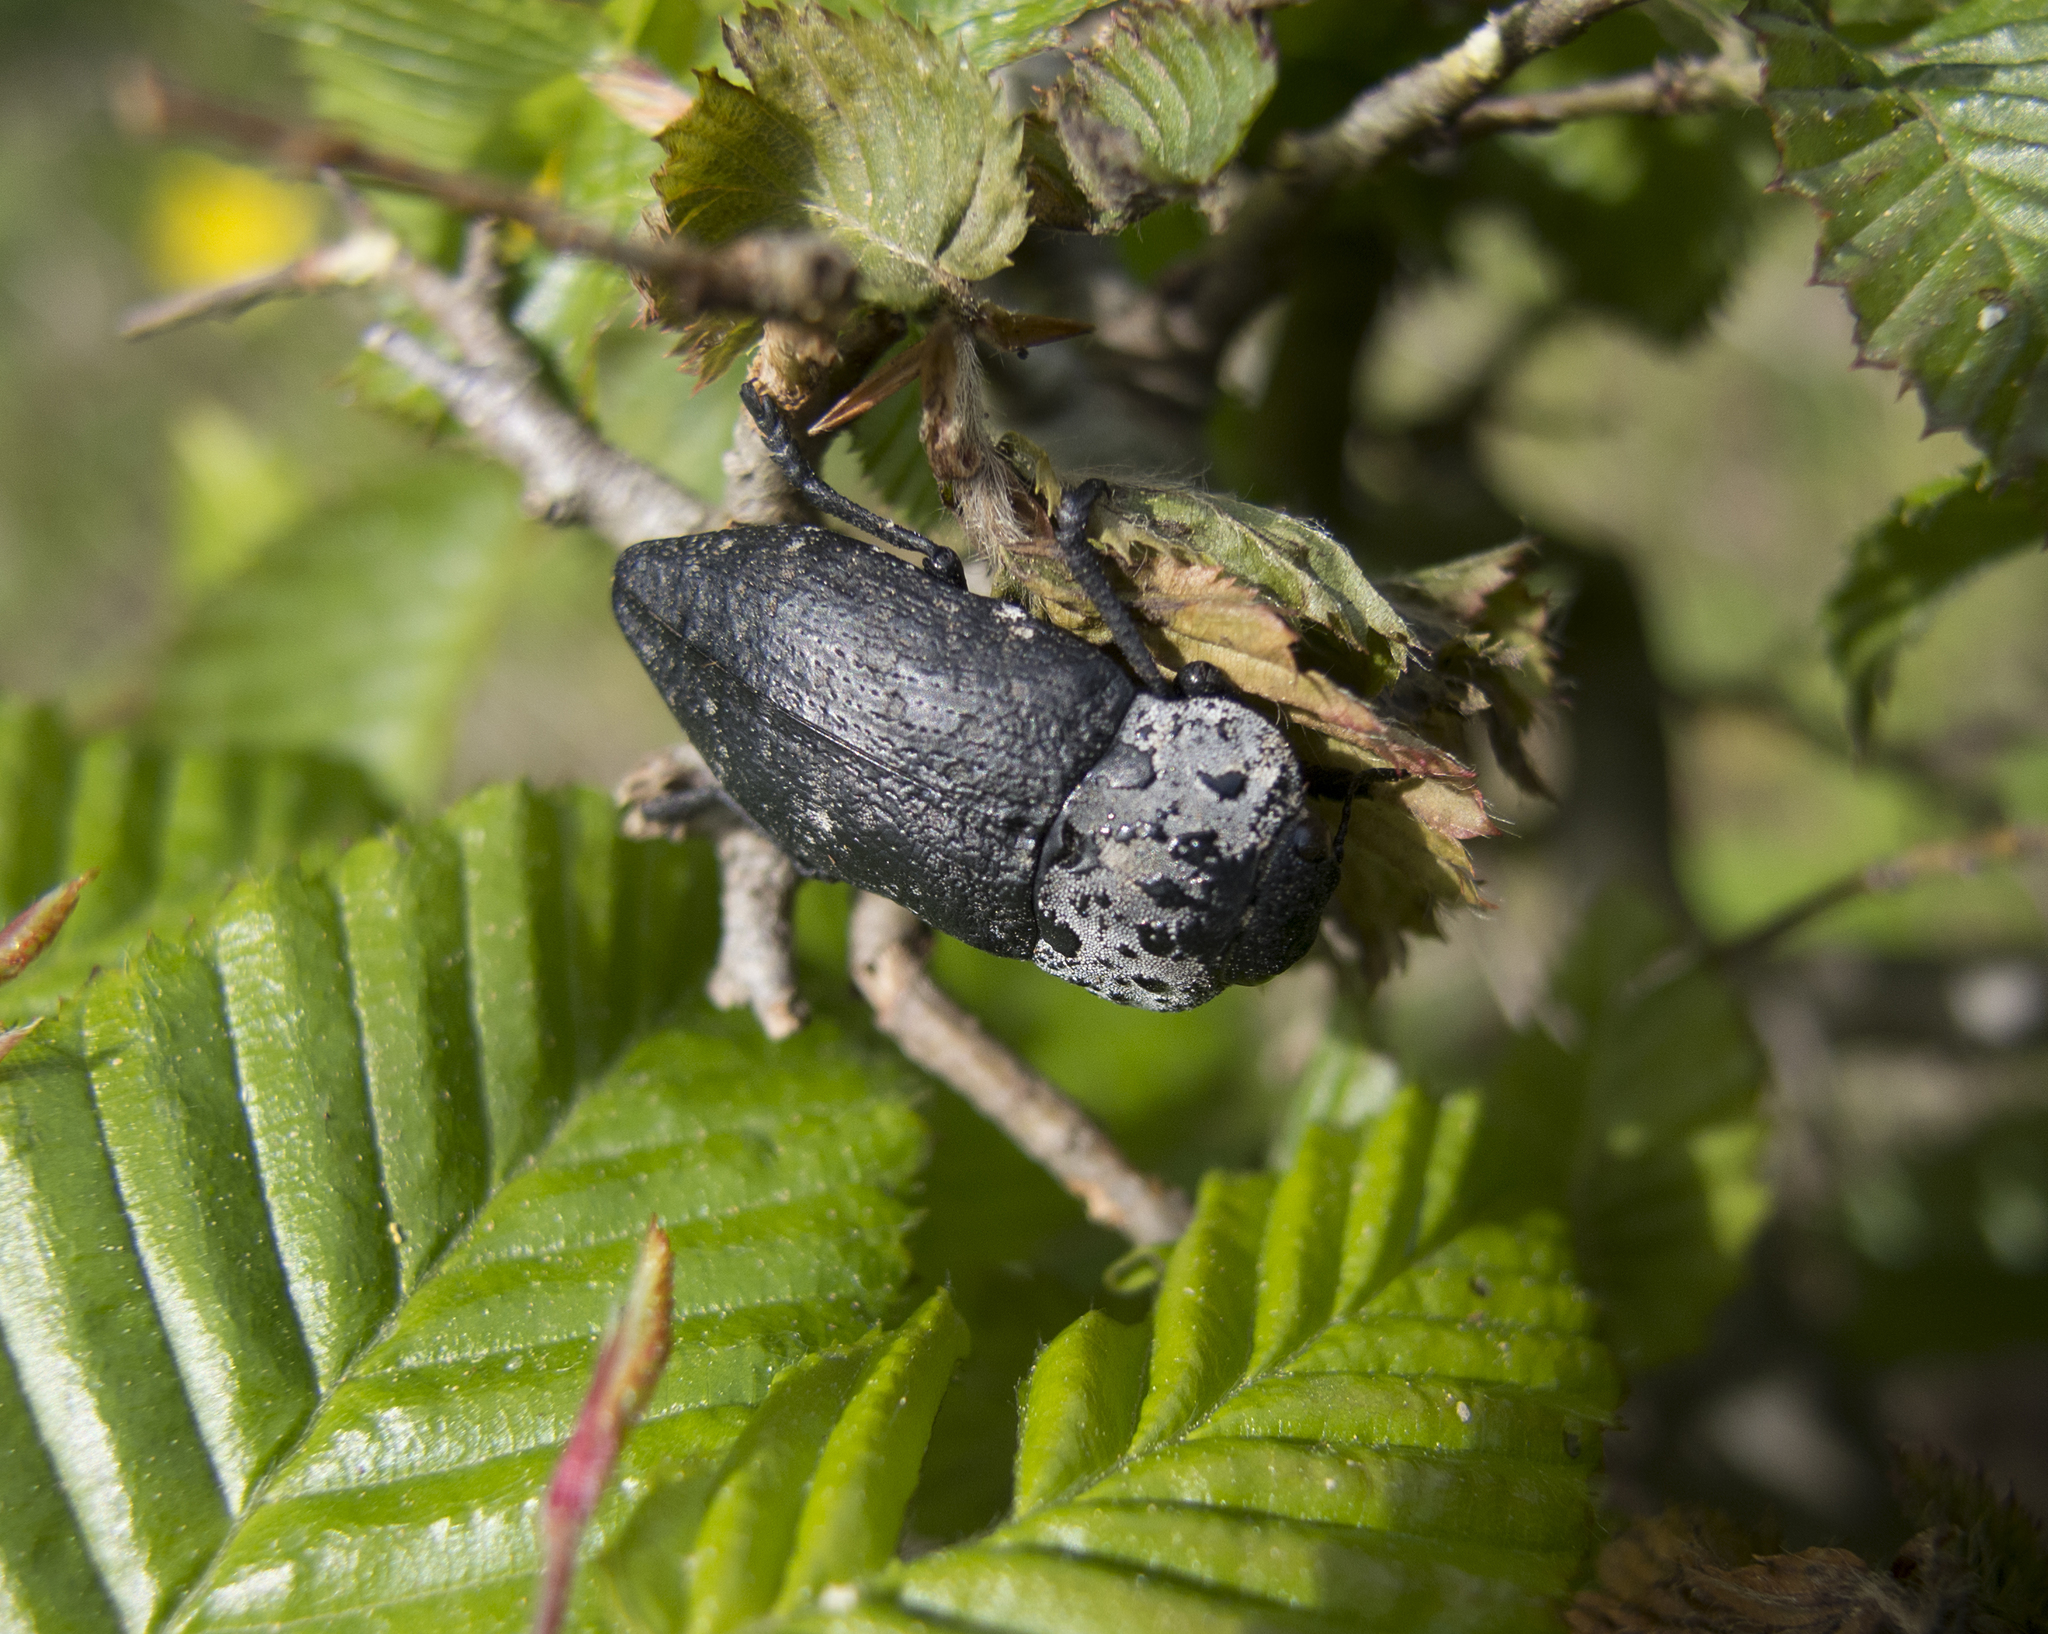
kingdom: Animalia
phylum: Arthropoda
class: Insecta
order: Coleoptera
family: Buprestidae
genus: Capnodis
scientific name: Capnodis tenebrionis
